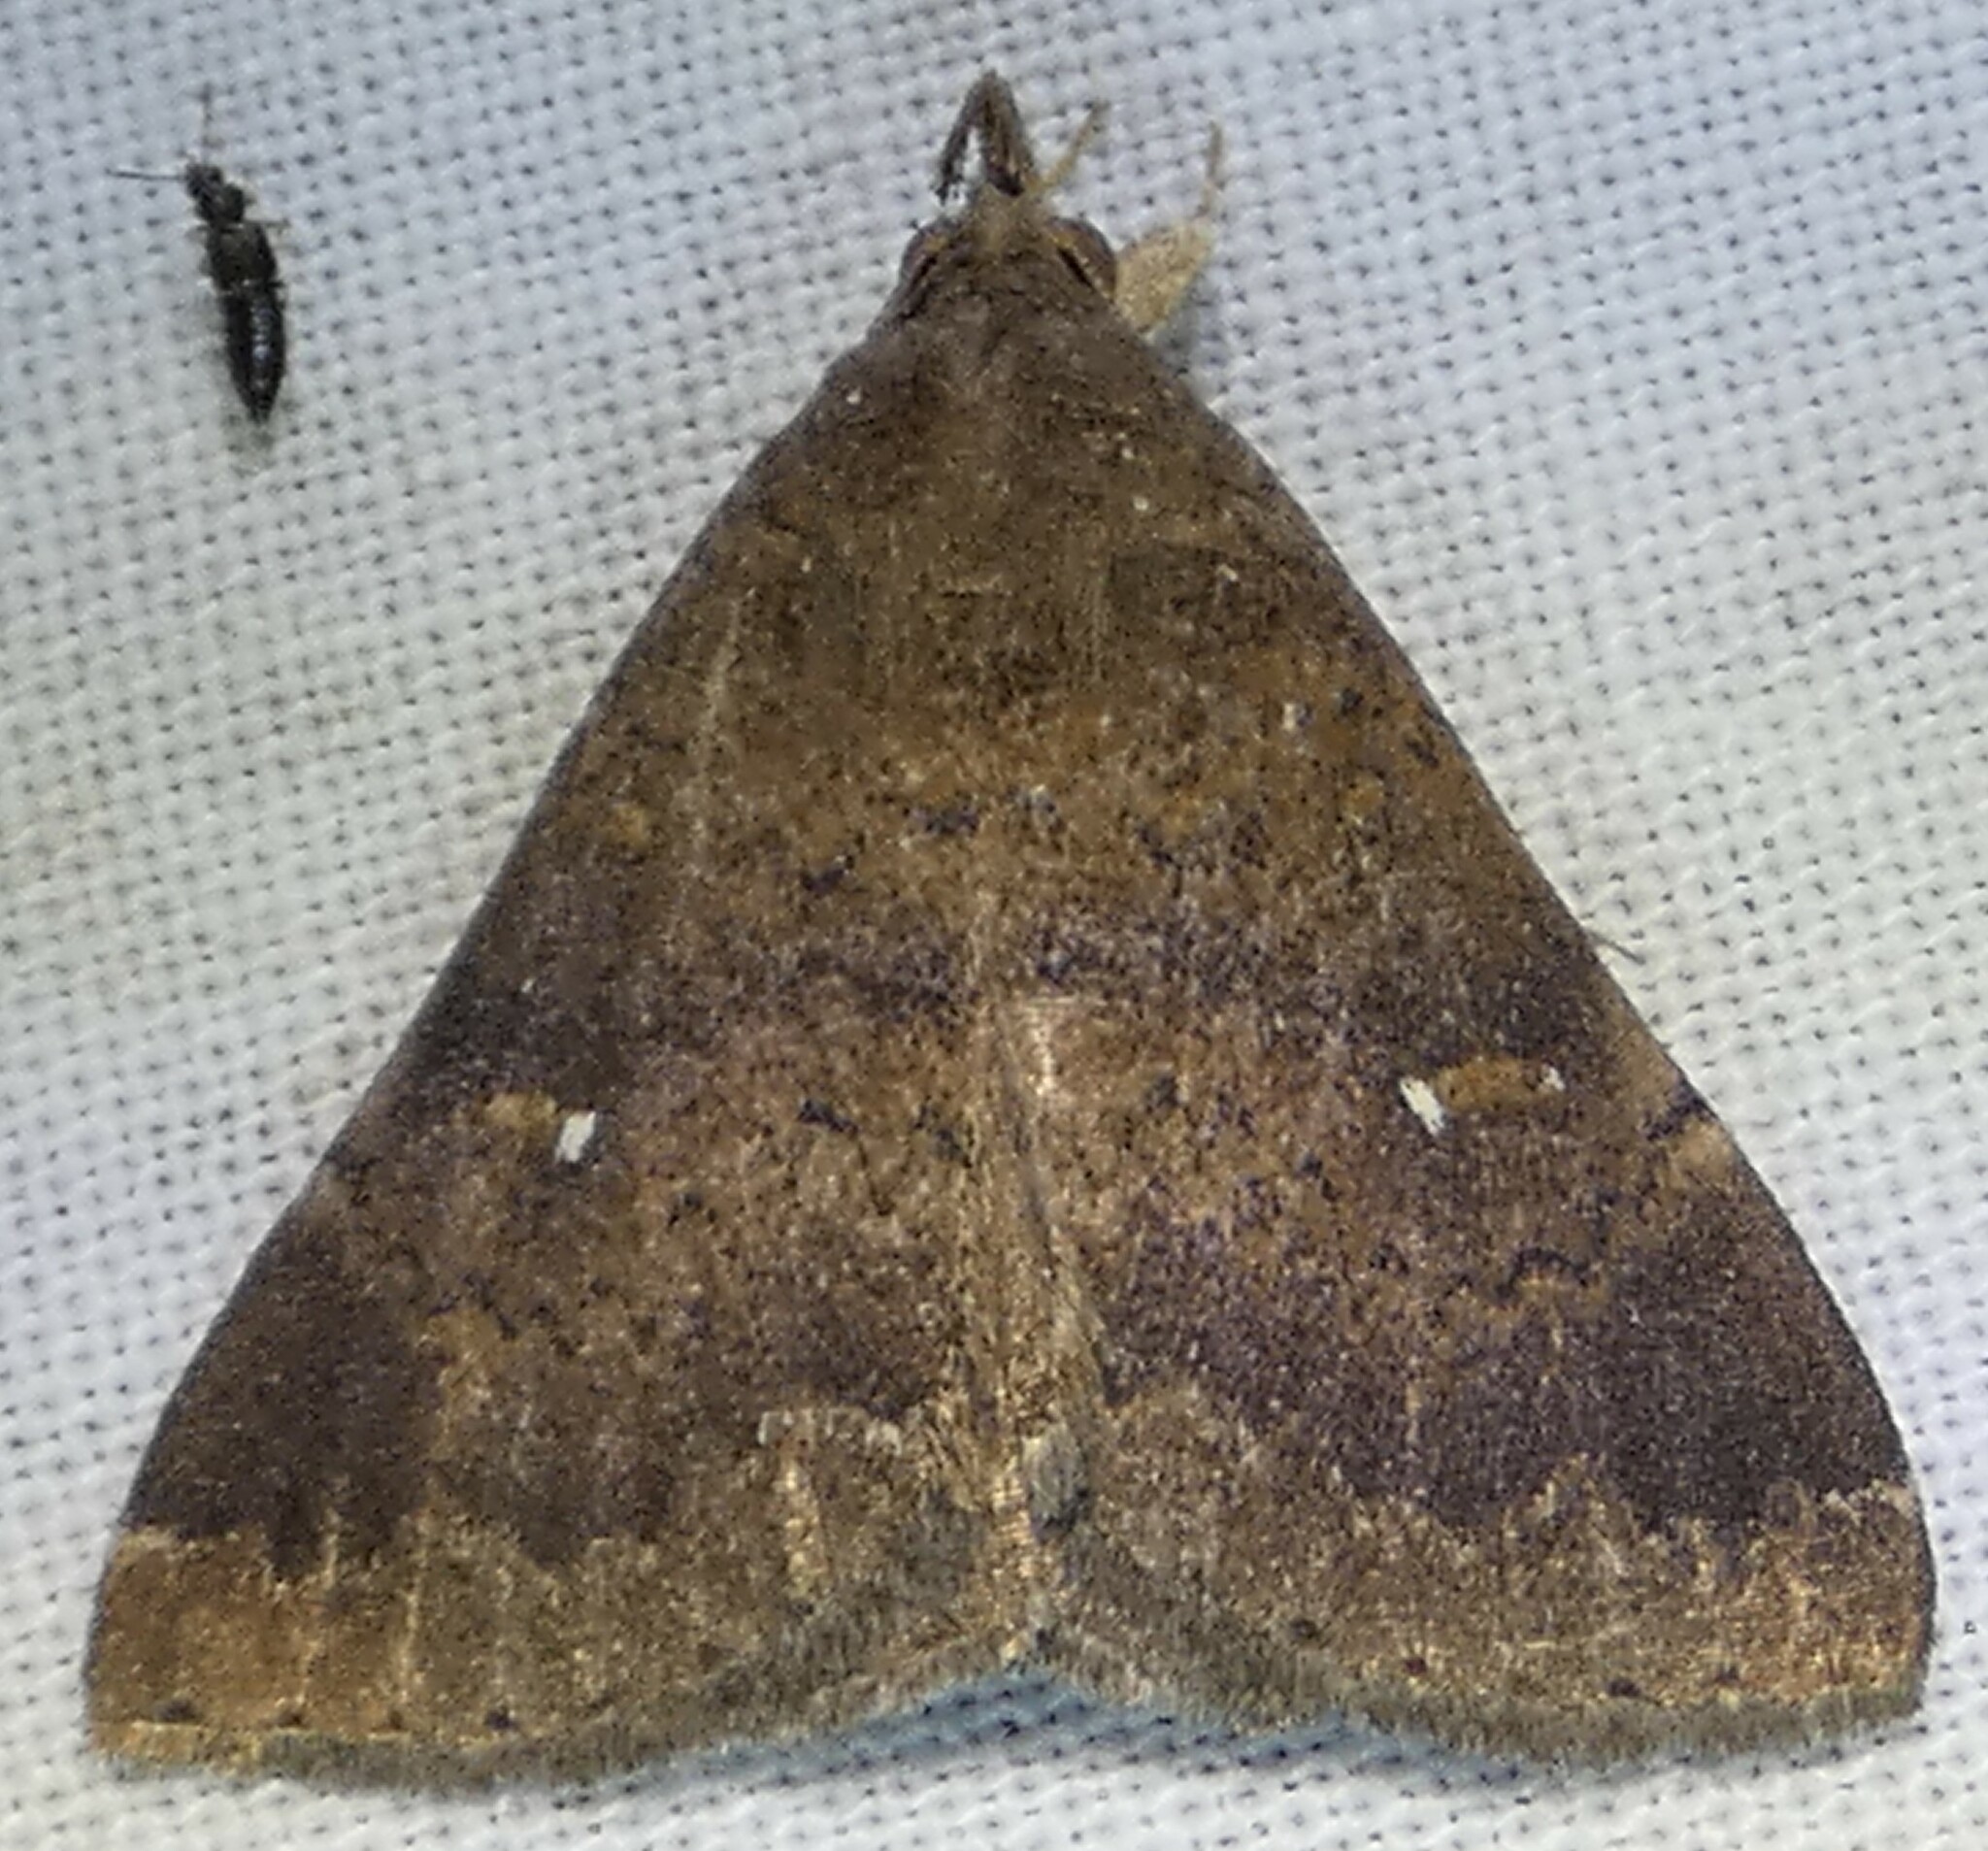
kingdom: Animalia
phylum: Arthropoda
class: Insecta
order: Lepidoptera
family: Erebidae
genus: Hypenula
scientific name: Hypenula cacuminalis
